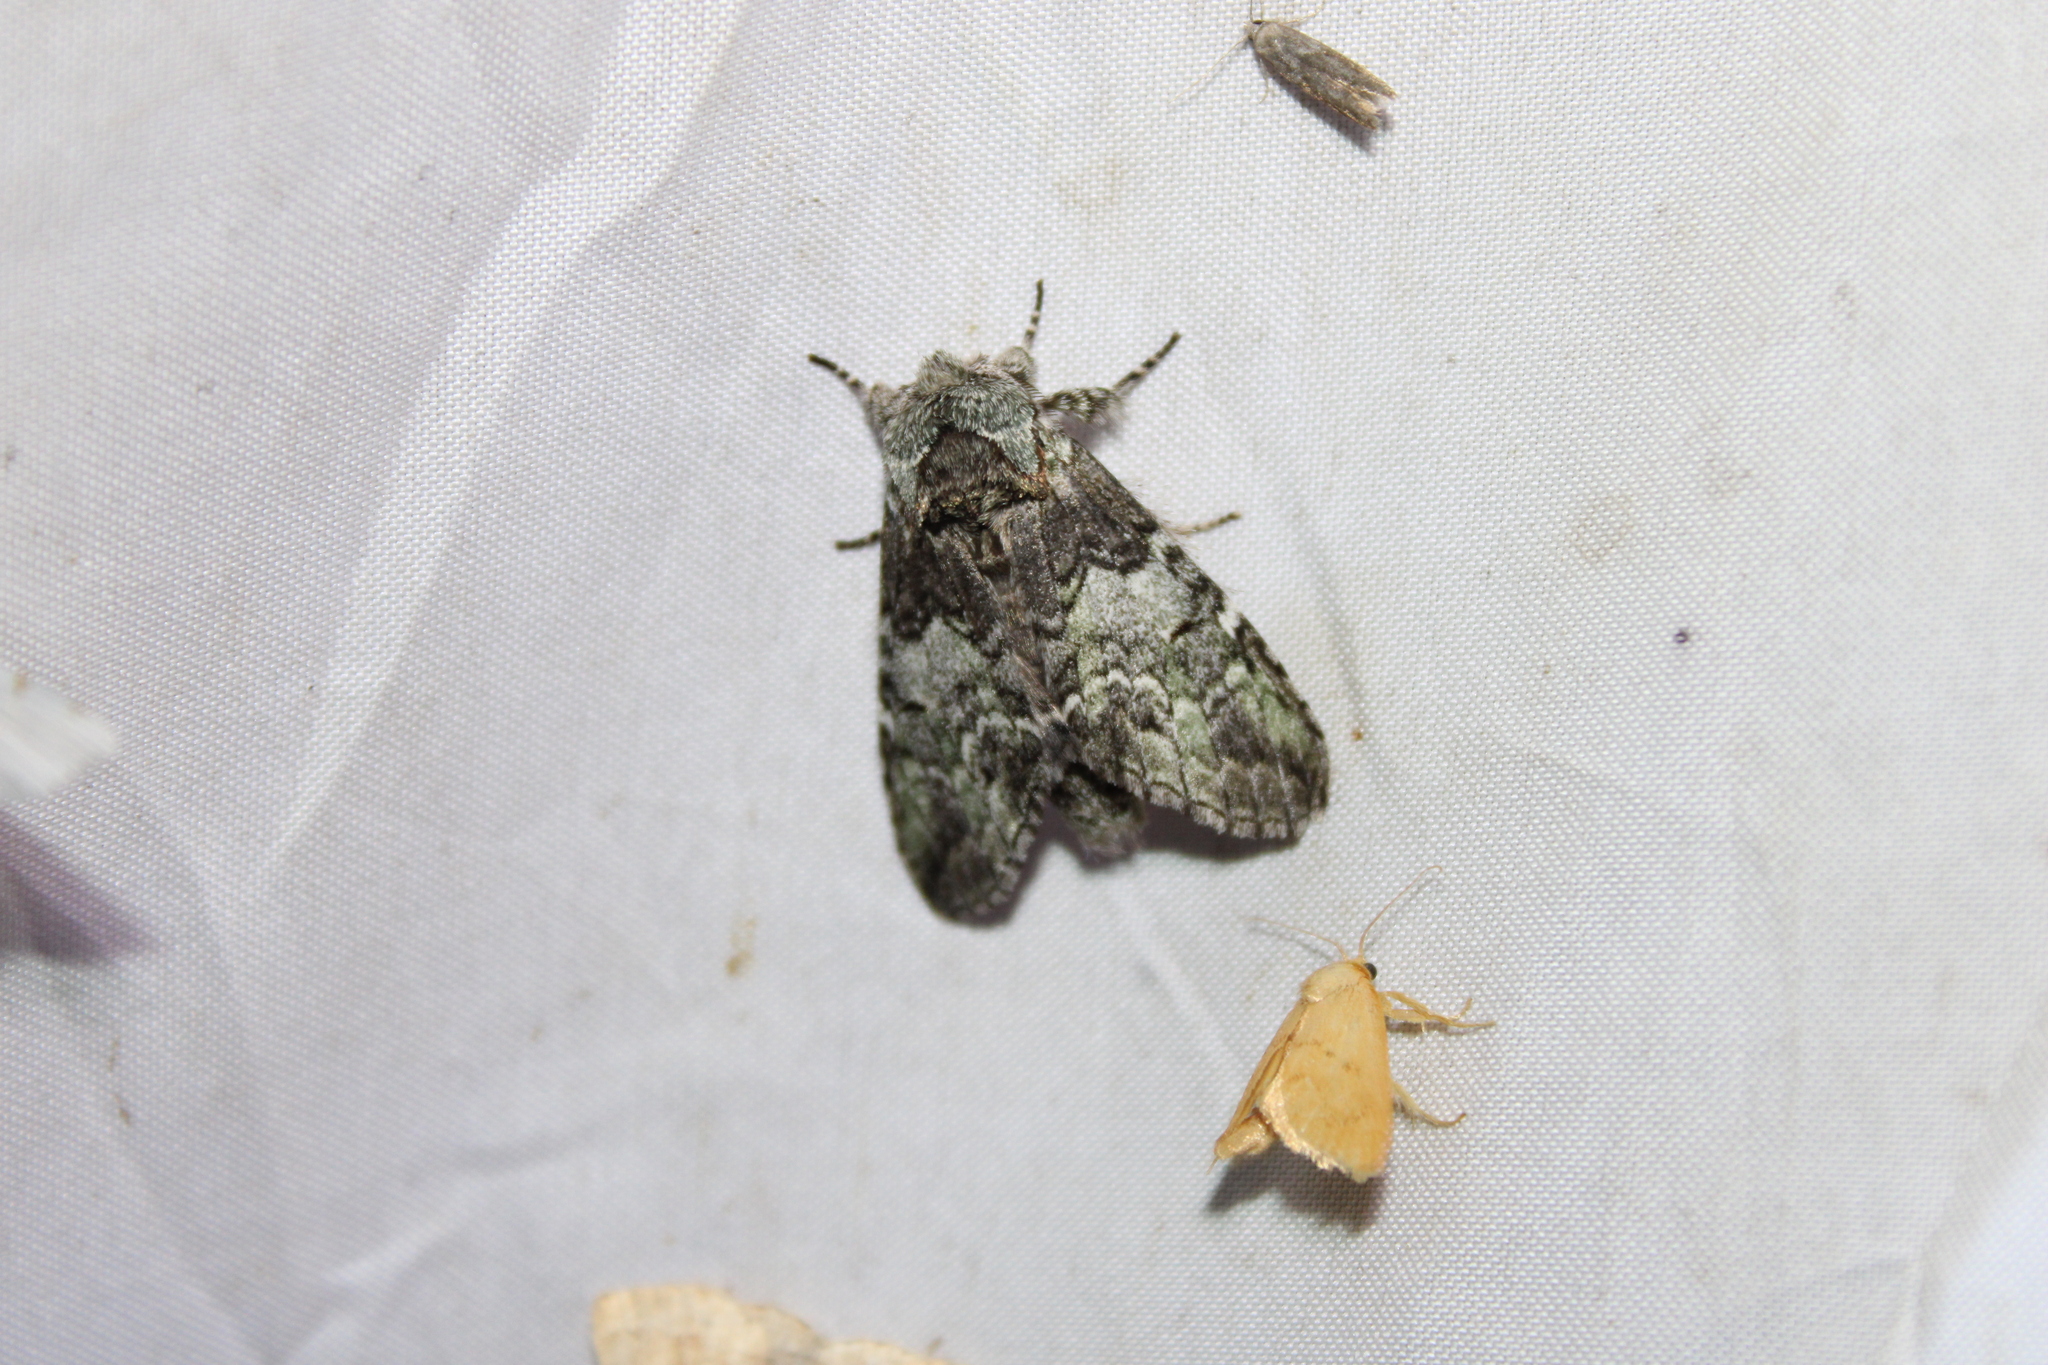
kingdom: Animalia
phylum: Arthropoda
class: Insecta
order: Lepidoptera
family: Notodontidae
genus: Macrurocampa
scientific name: Macrurocampa marthesia
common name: Mottled prominent
